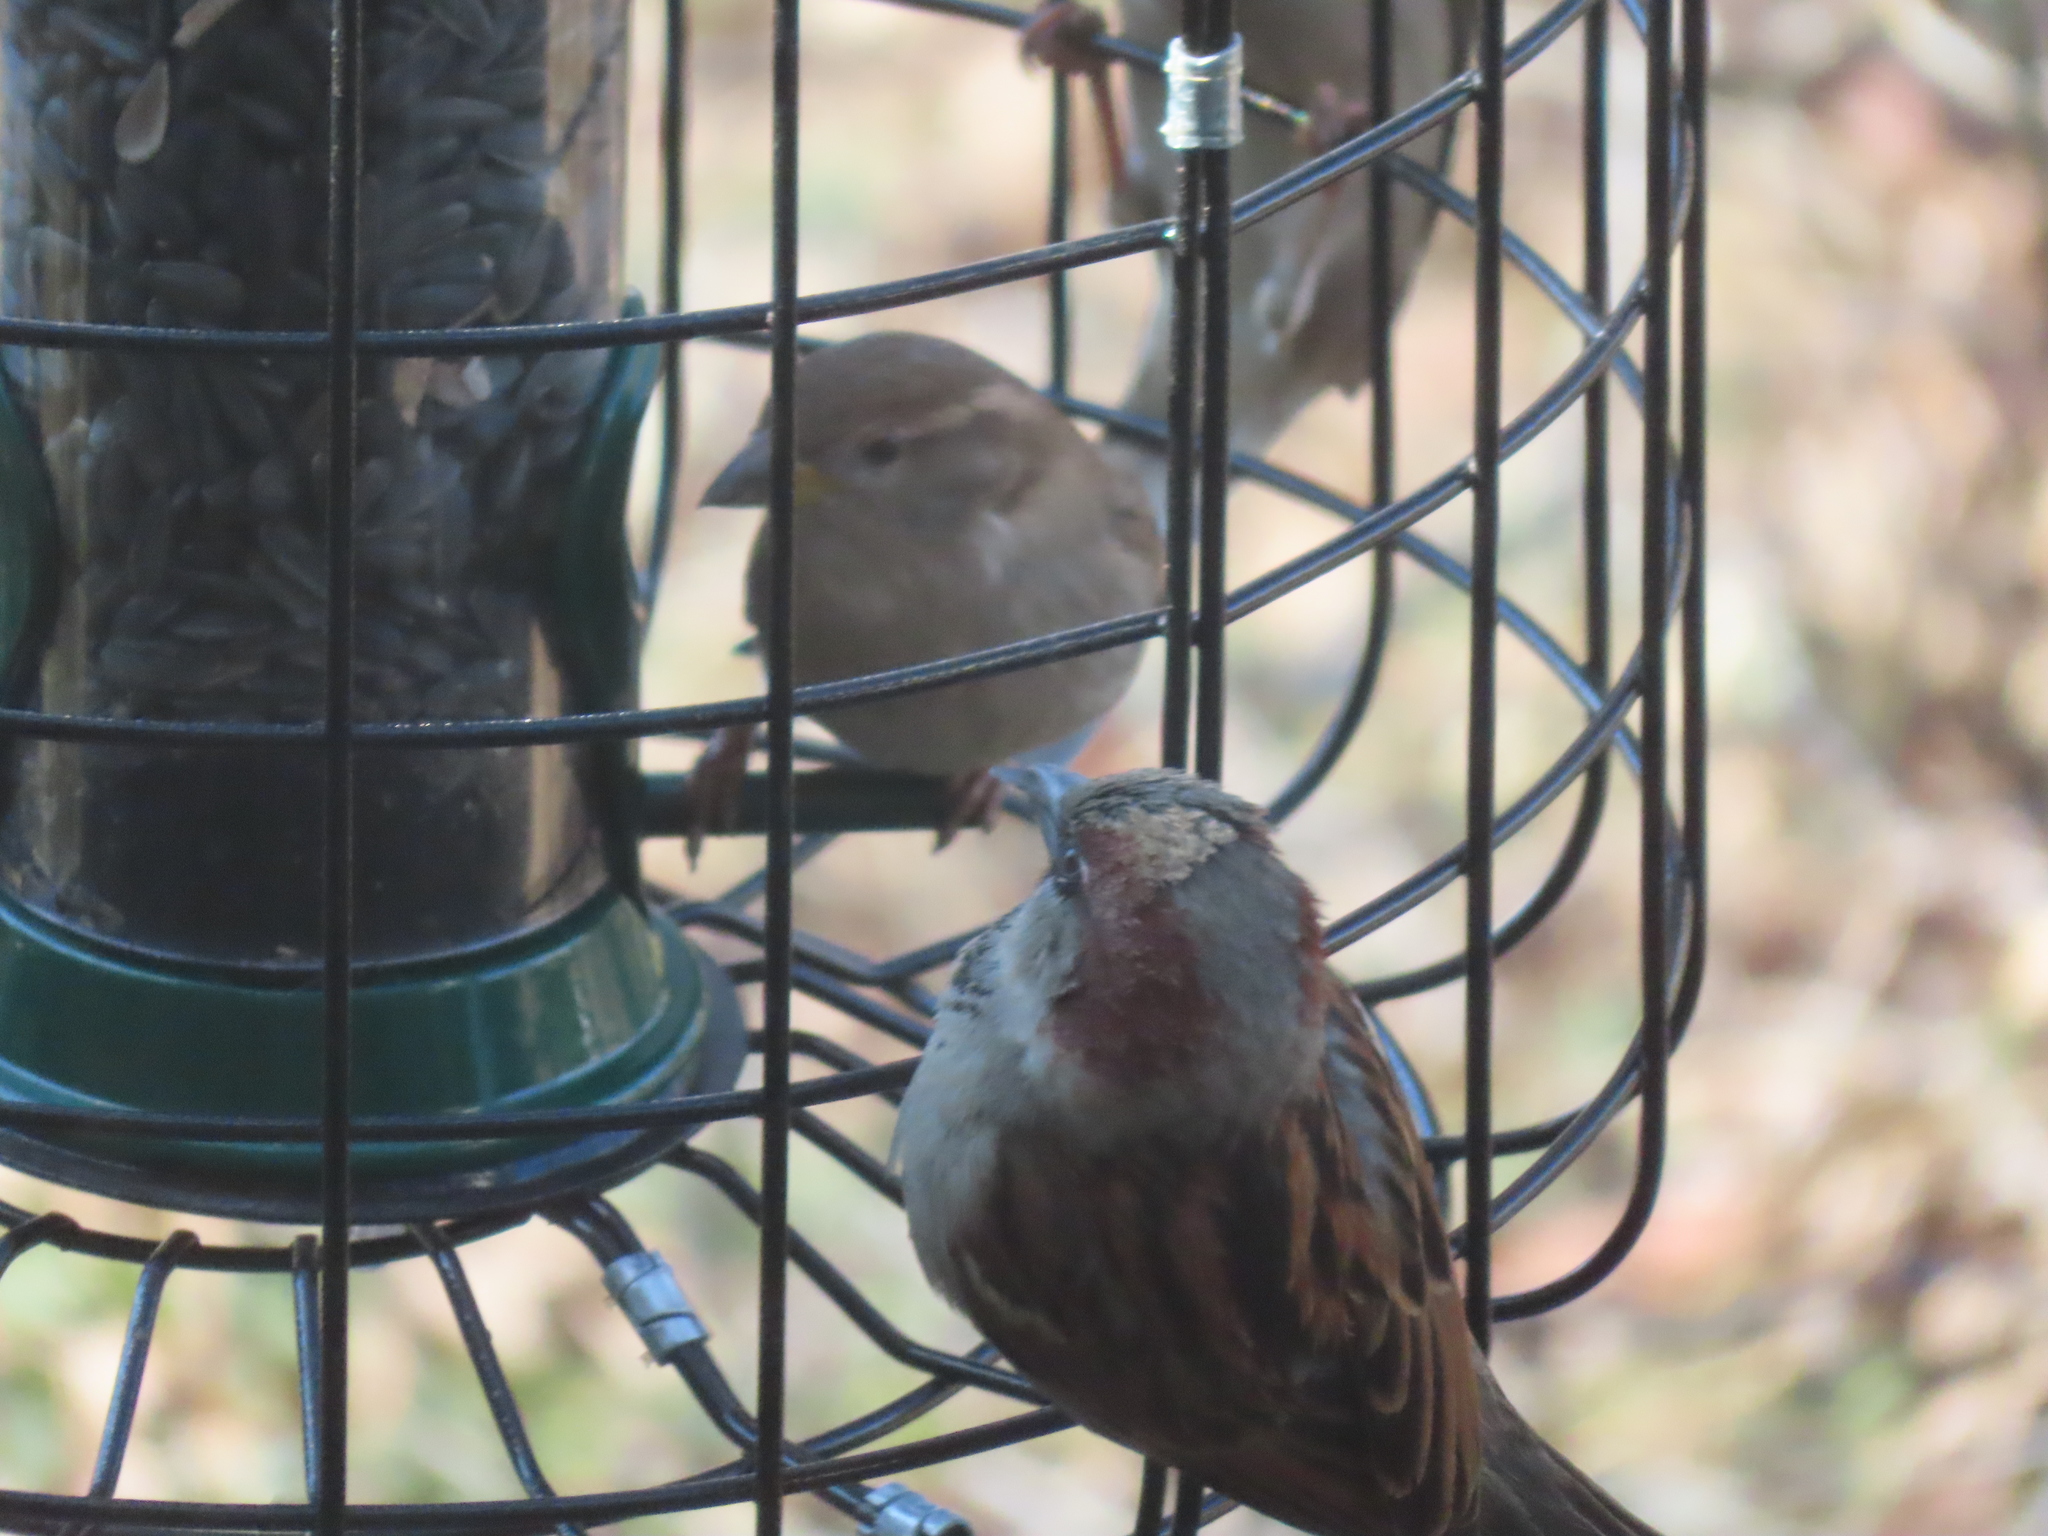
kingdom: Animalia
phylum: Chordata
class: Aves
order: Passeriformes
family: Passeridae
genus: Passer
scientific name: Passer domesticus
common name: House sparrow
